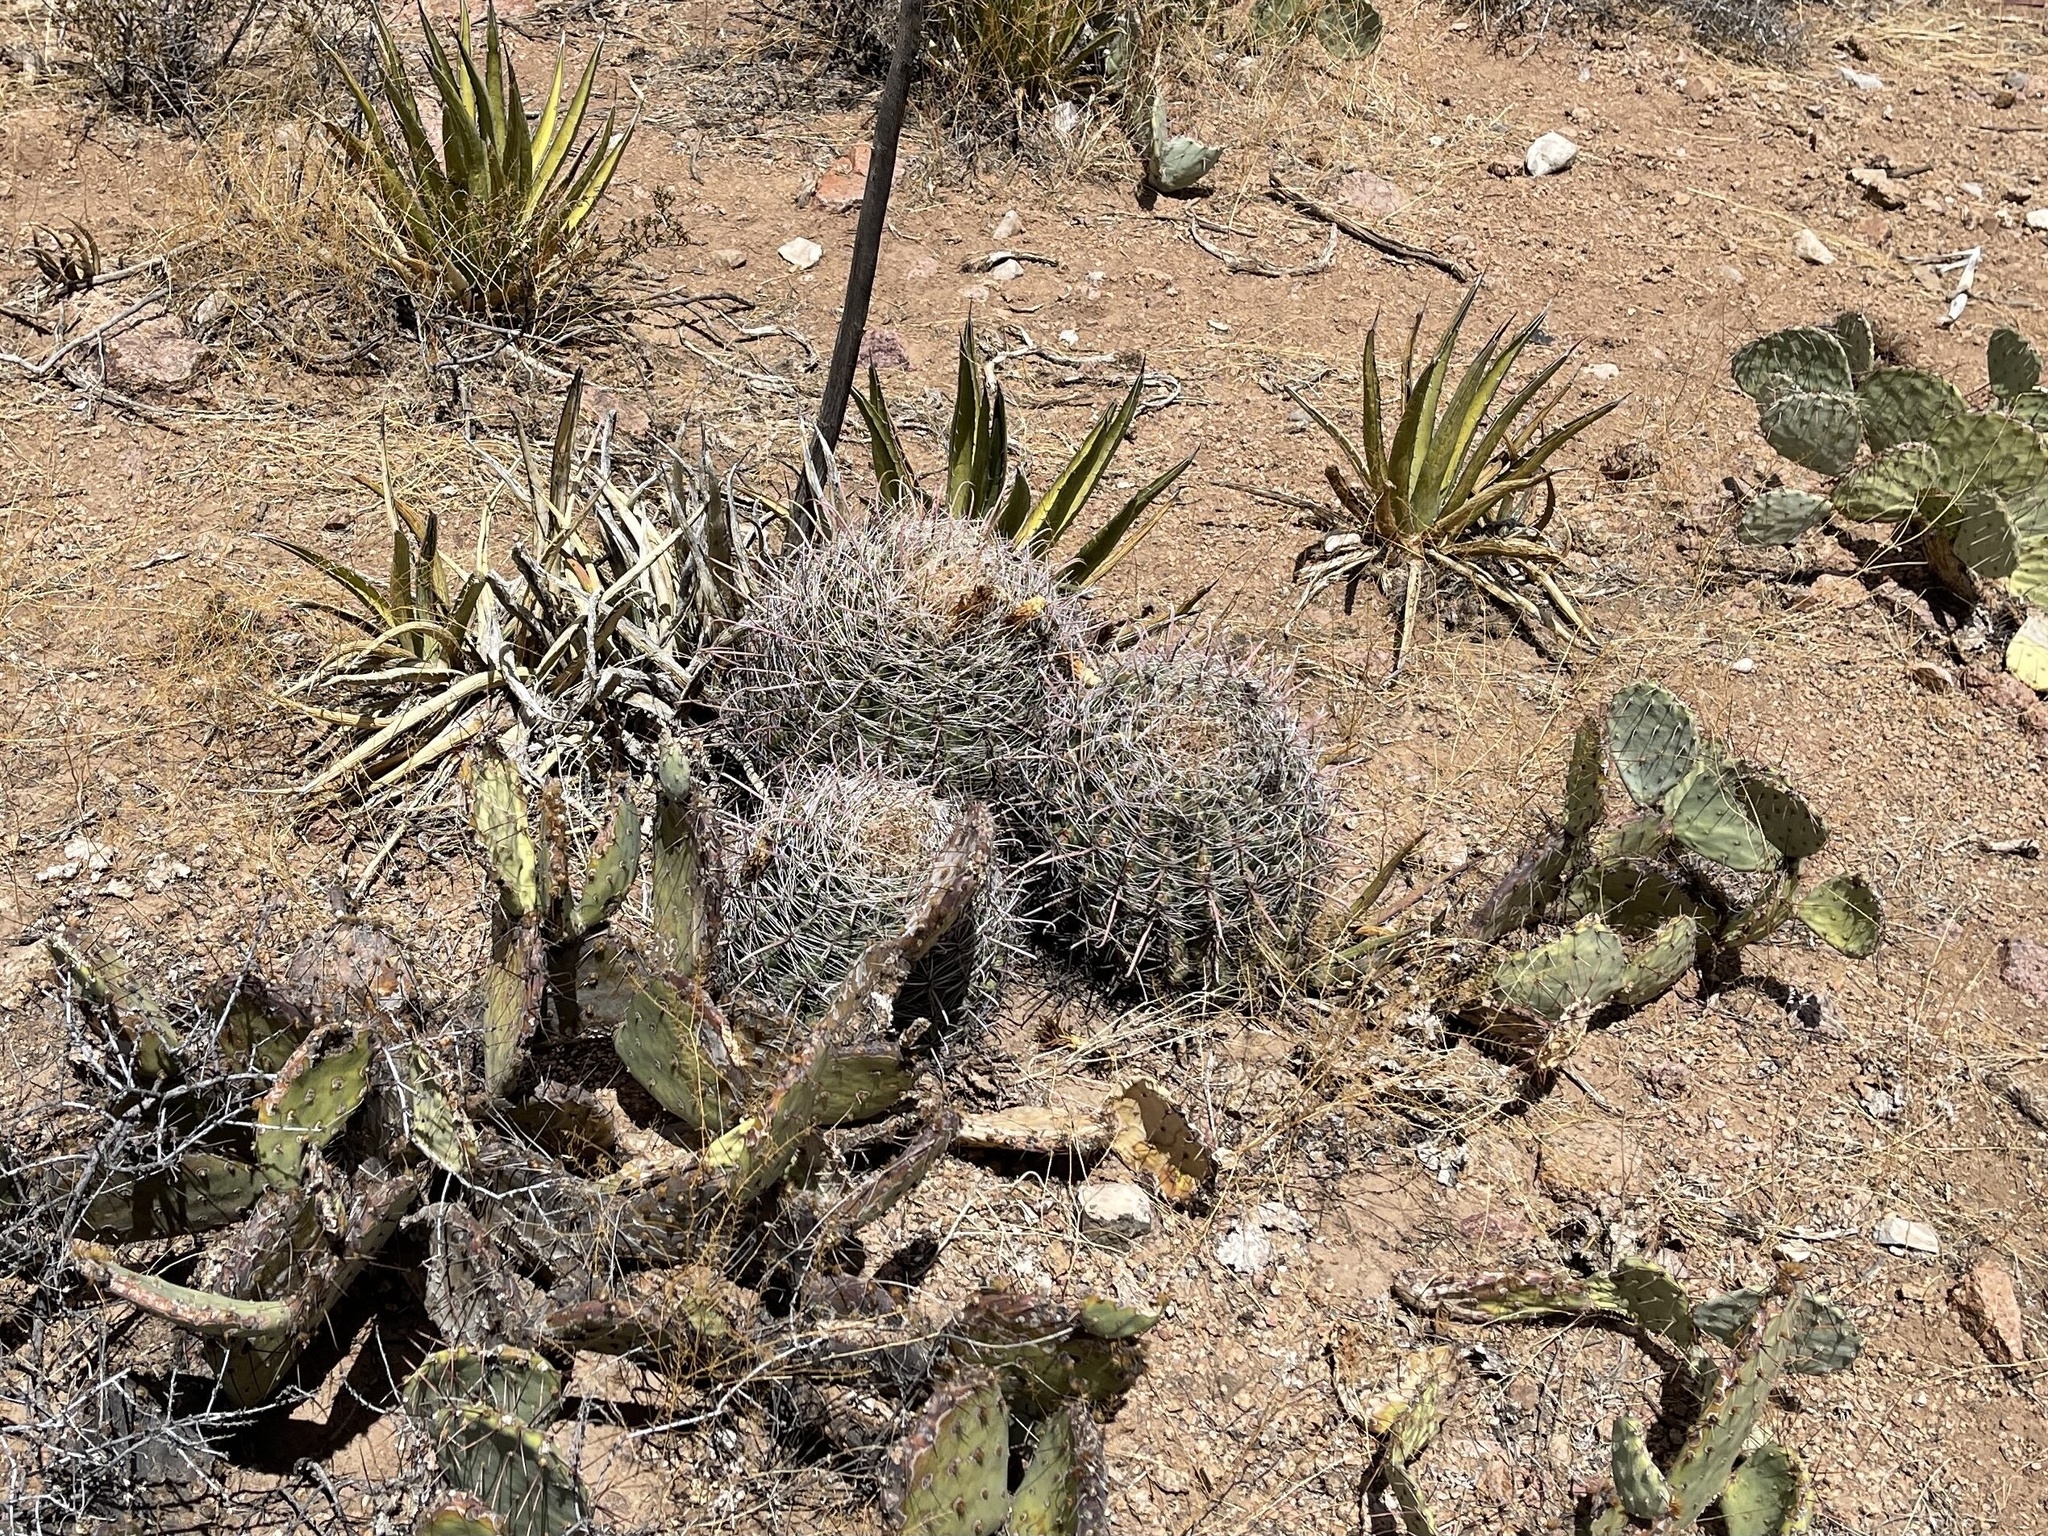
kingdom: Plantae
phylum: Tracheophyta
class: Magnoliopsida
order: Caryophyllales
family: Cactaceae
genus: Ferocactus
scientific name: Ferocactus wislizeni
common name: Candy barrel cactus
